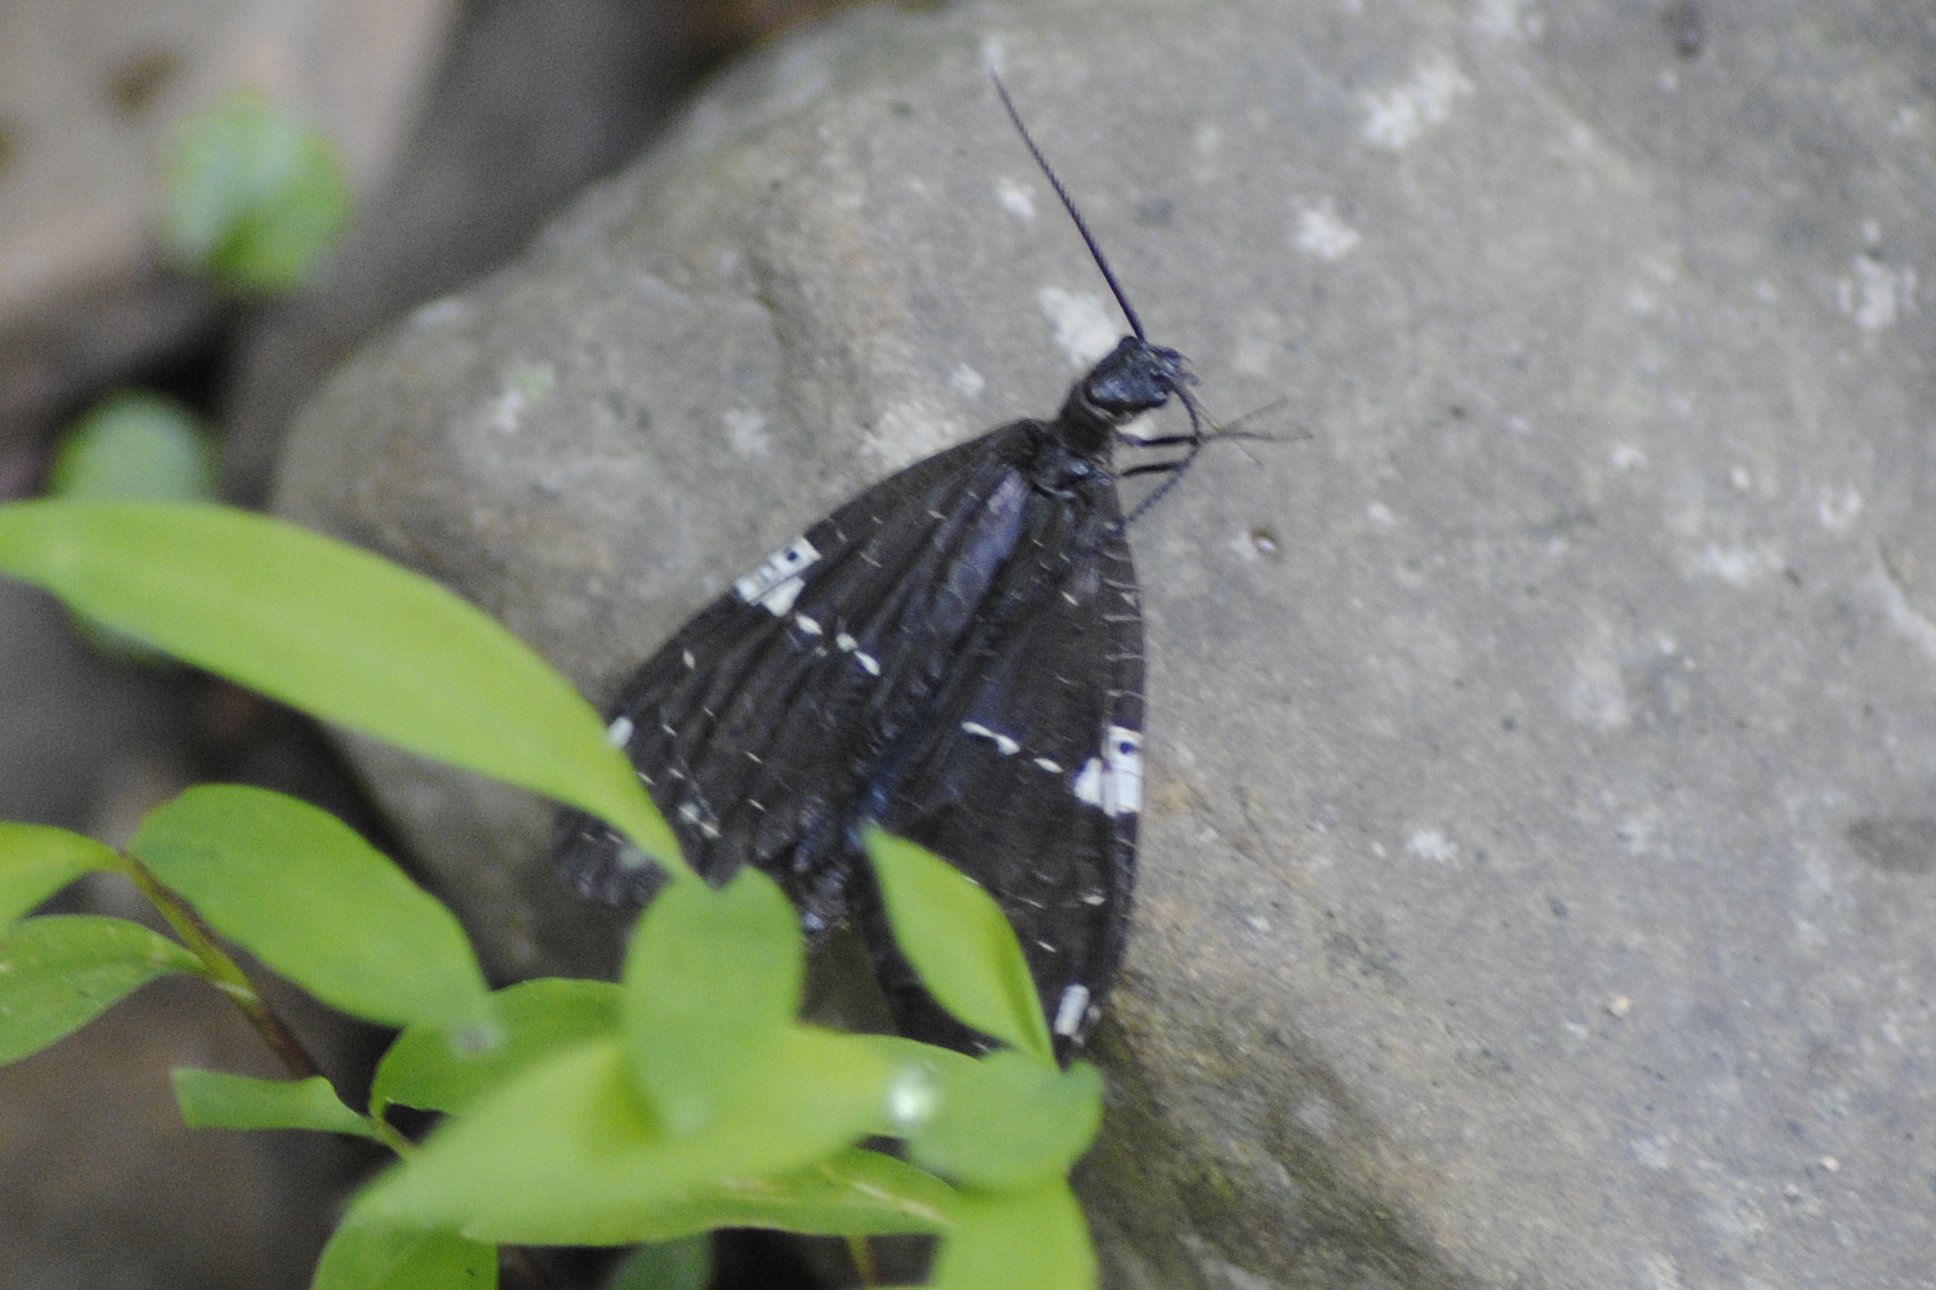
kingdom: Animalia
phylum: Arthropoda
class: Insecta
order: Megaloptera
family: Corydalidae
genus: Nigronia
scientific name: Nigronia serricornis
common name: Serrate dark fishfly
